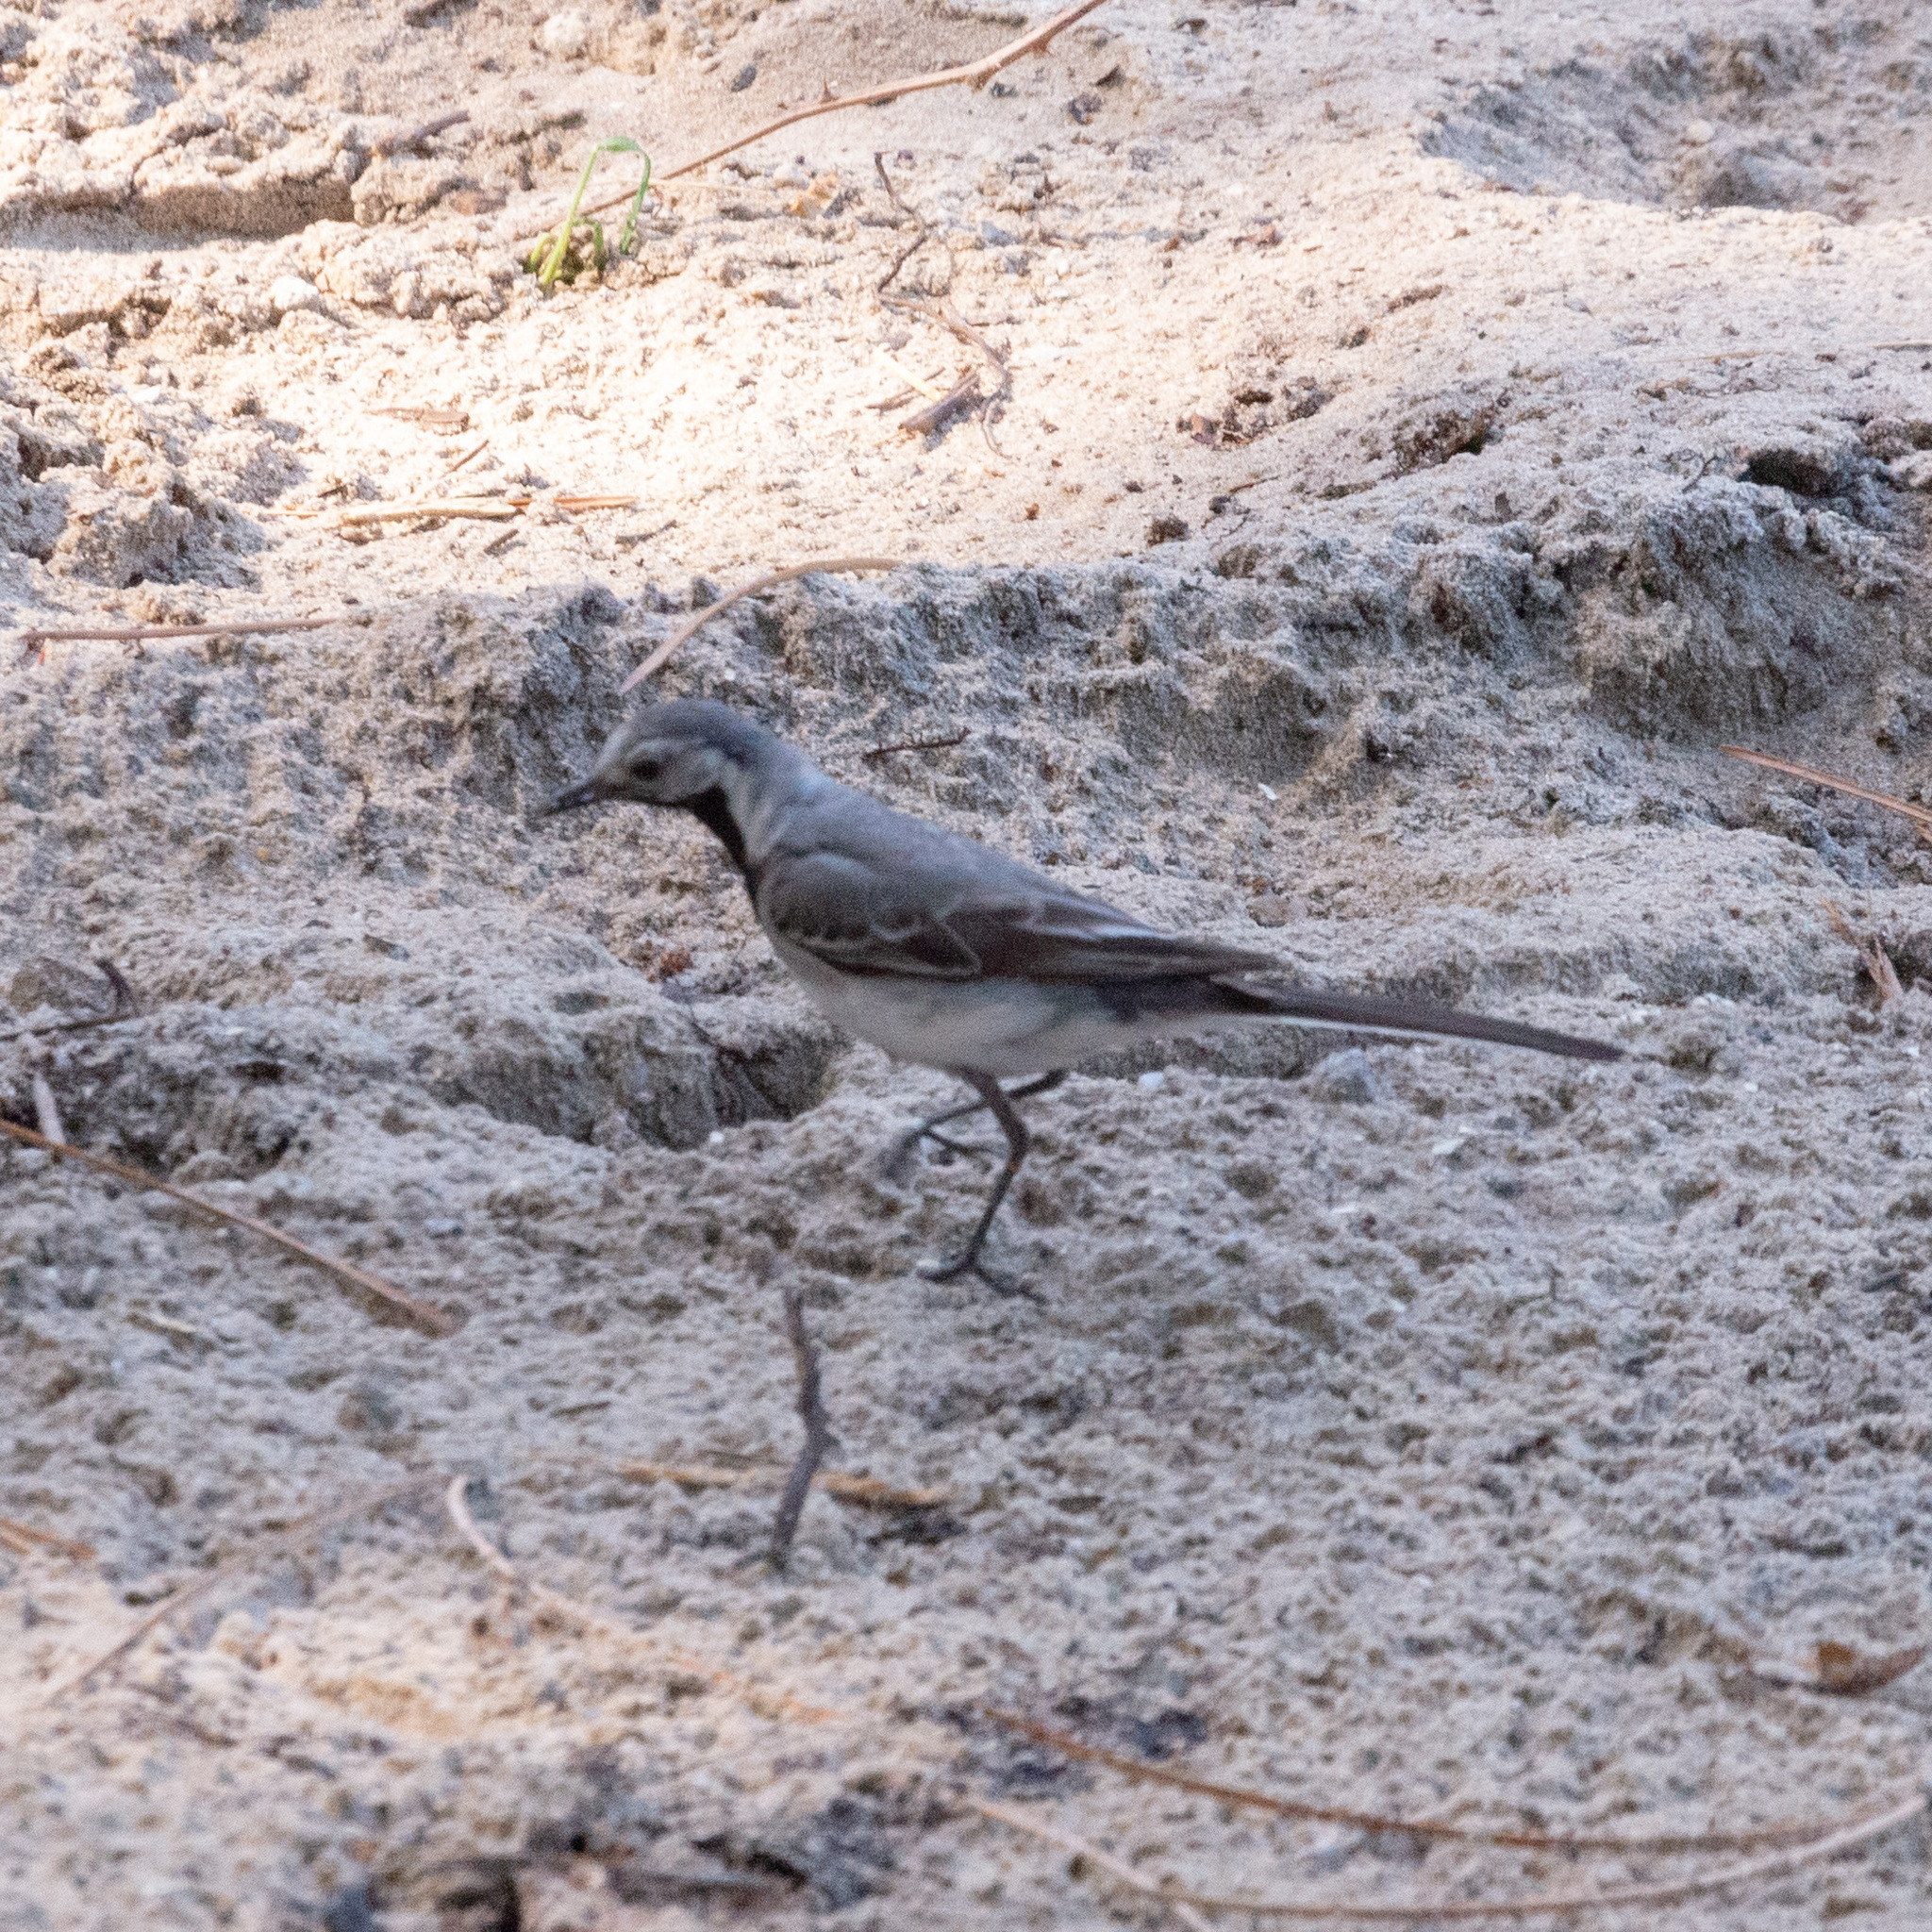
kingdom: Animalia
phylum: Chordata
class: Aves
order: Passeriformes
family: Motacillidae
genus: Motacilla
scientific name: Motacilla alba
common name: White wagtail
